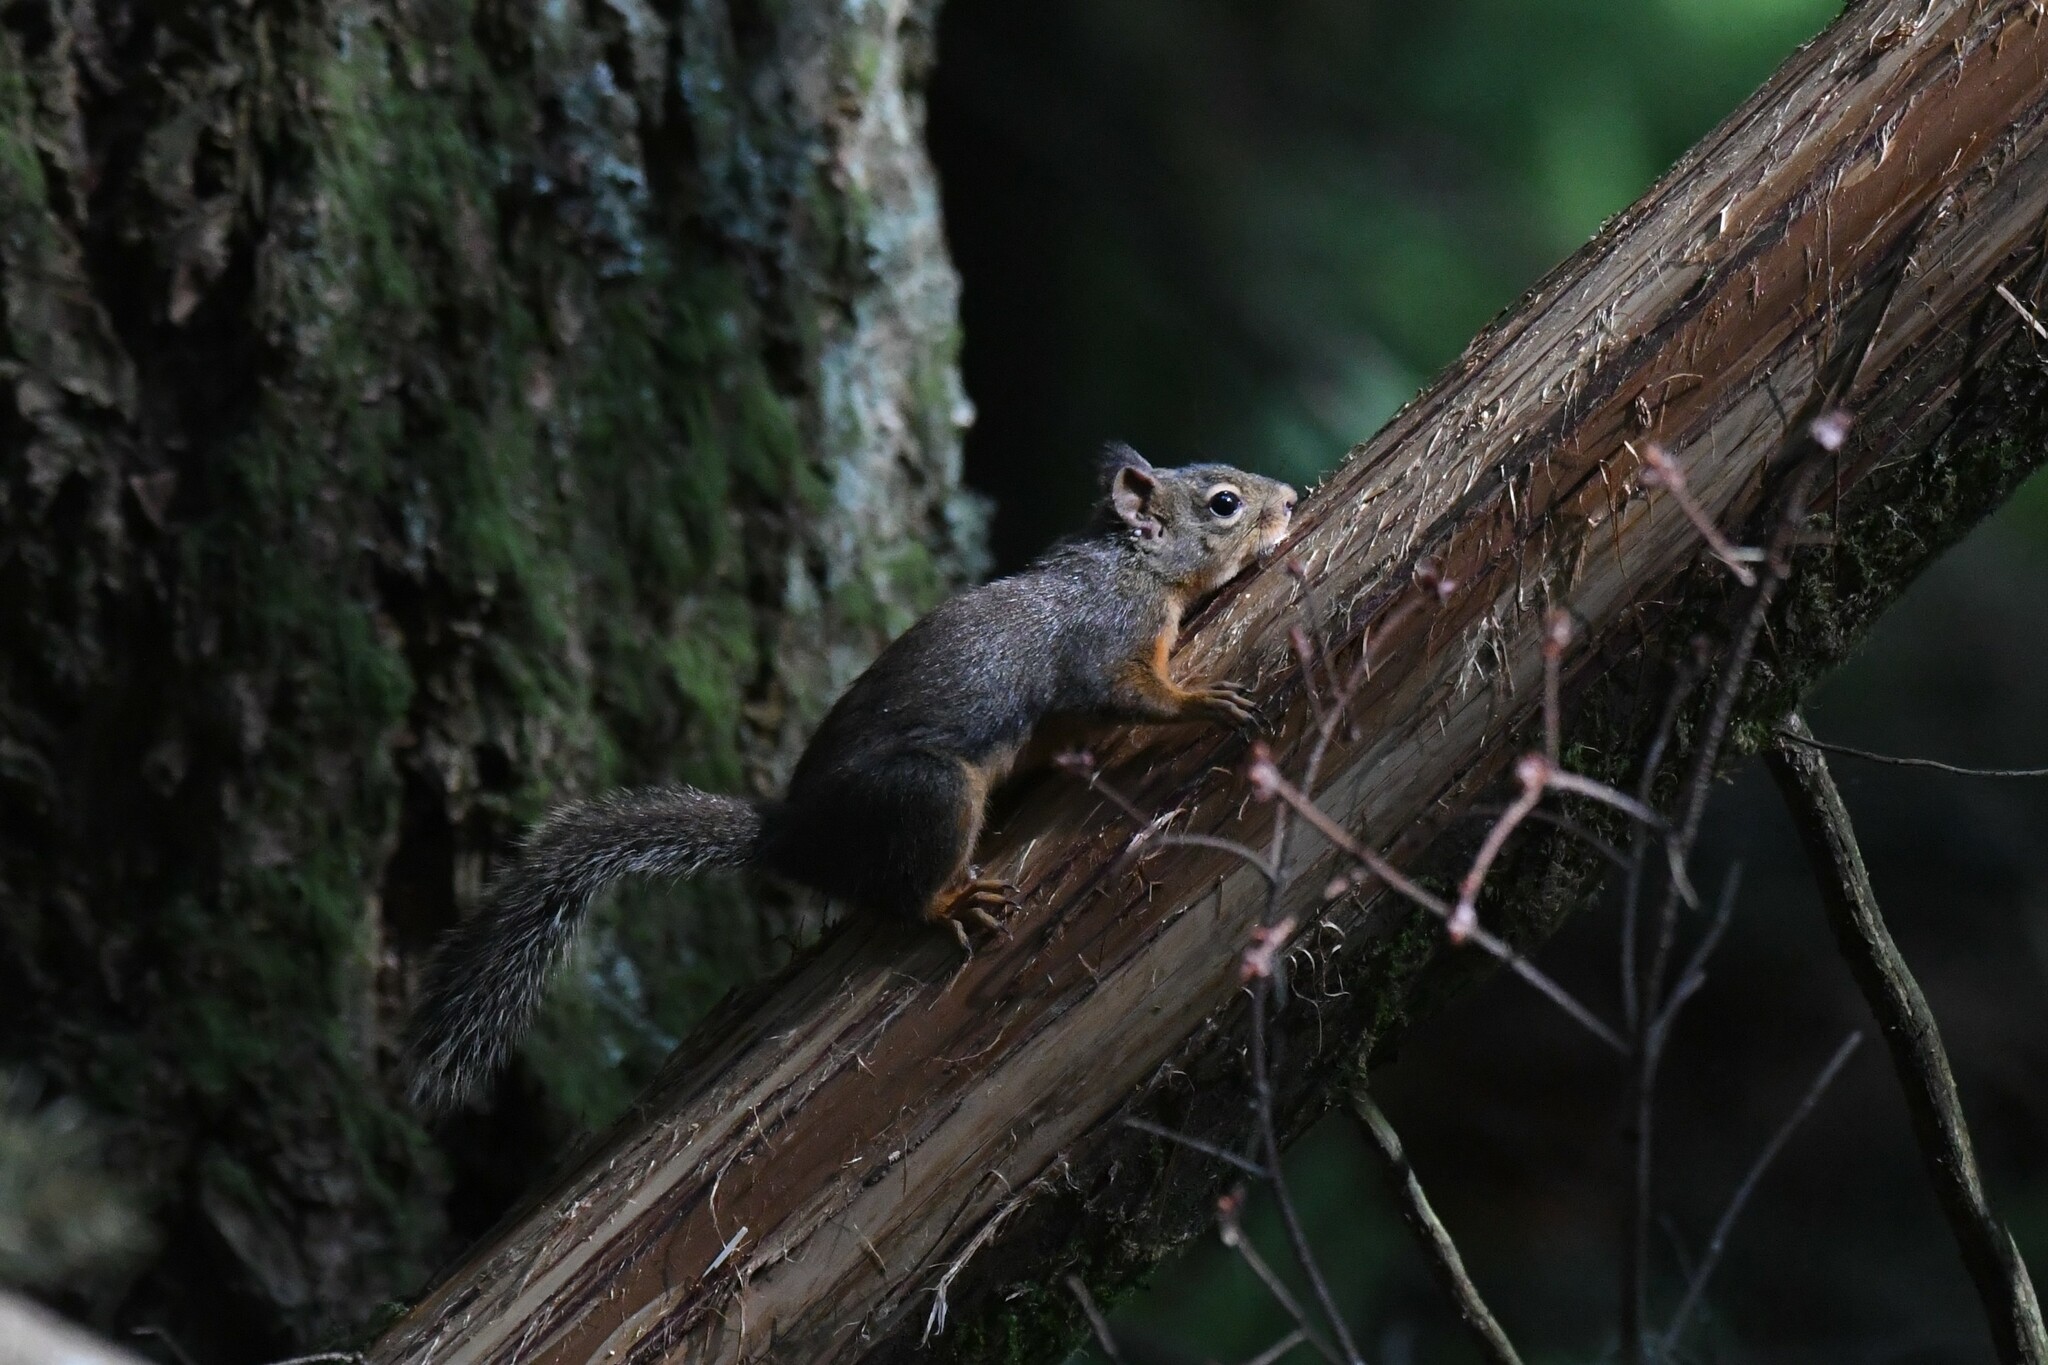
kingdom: Animalia
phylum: Chordata
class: Mammalia
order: Rodentia
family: Sciuridae
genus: Tamiasciurus
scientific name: Tamiasciurus douglasii
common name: Douglas's squirrel
